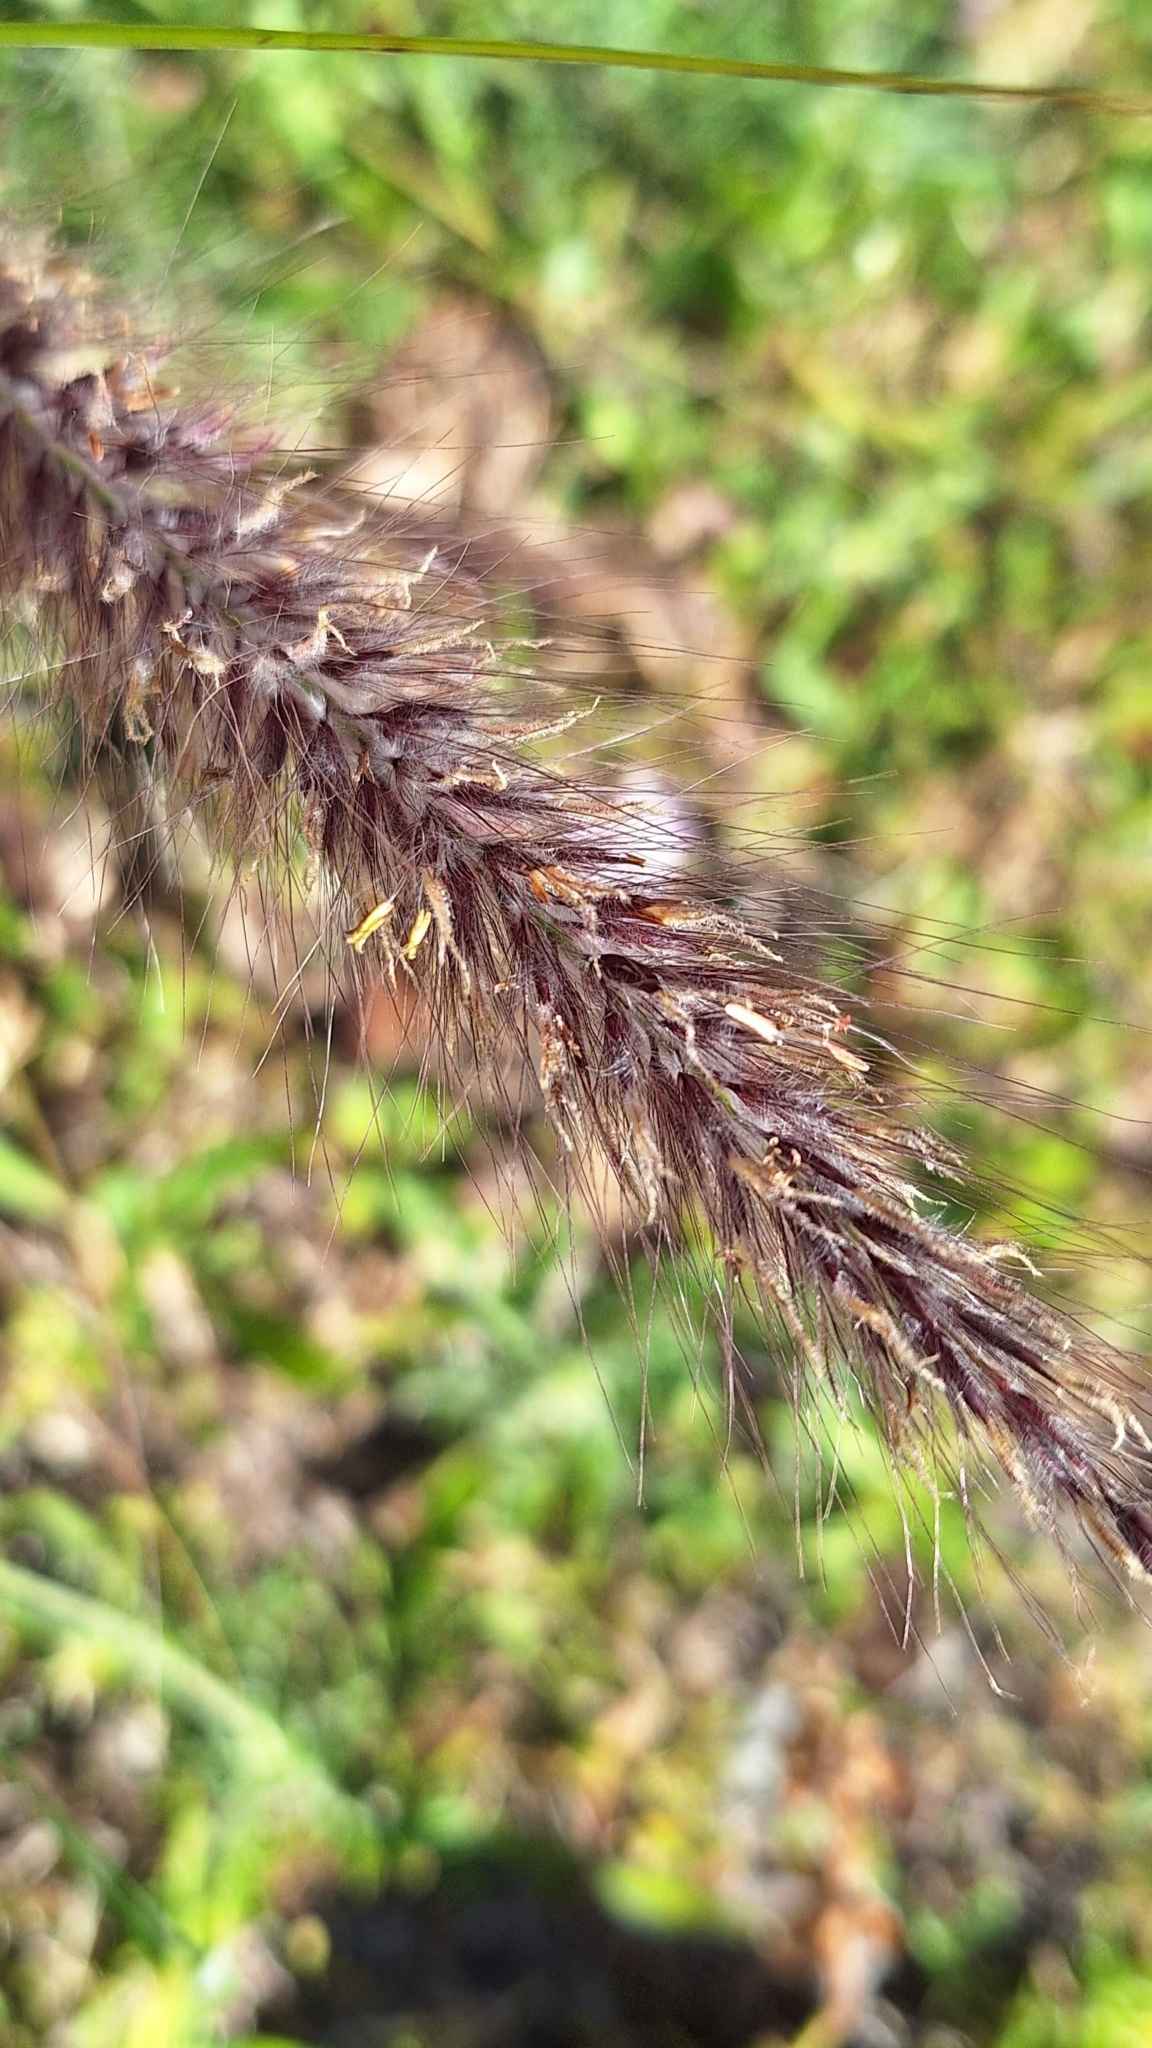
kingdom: Plantae
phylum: Tracheophyta
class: Liliopsida
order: Poales
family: Poaceae
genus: Cenchrus
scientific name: Cenchrus setaceus
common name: Crimson fountaingrass
